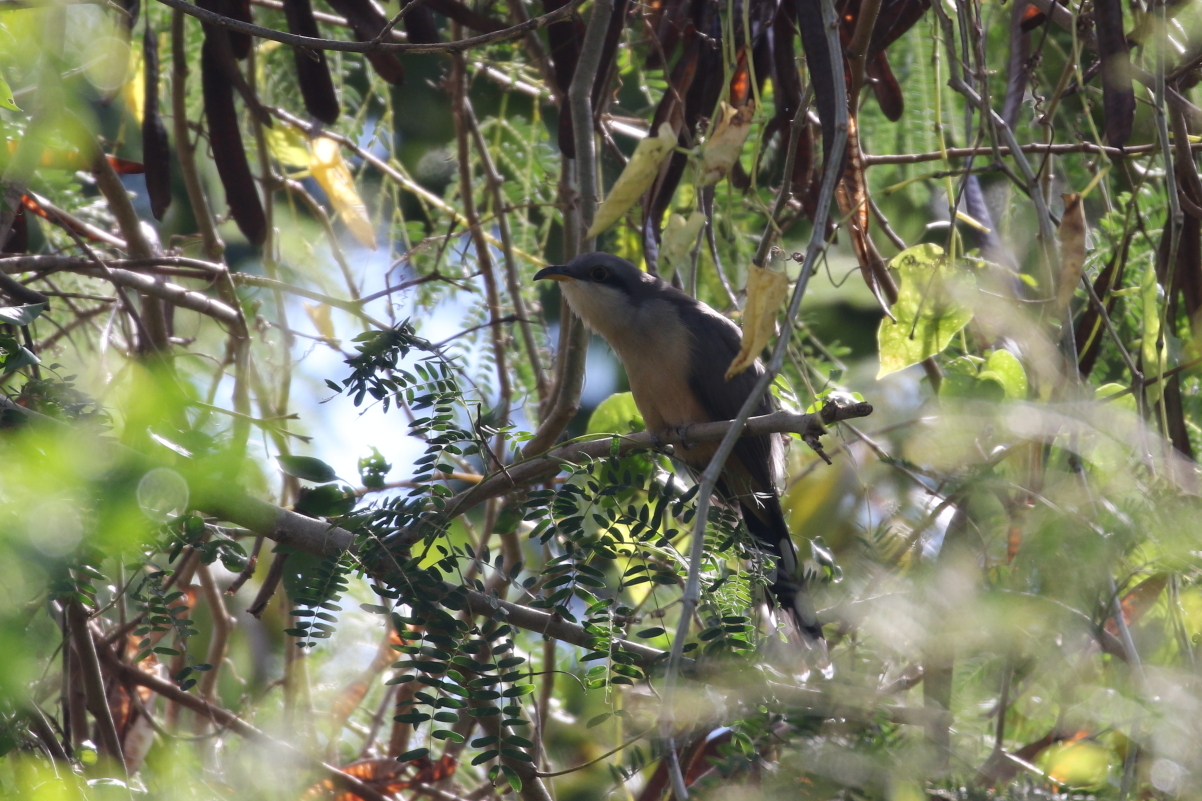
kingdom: Animalia
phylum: Chordata
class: Aves
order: Cuculiformes
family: Cuculidae
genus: Coccyzus
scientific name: Coccyzus minor
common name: Mangrove cuckoo
